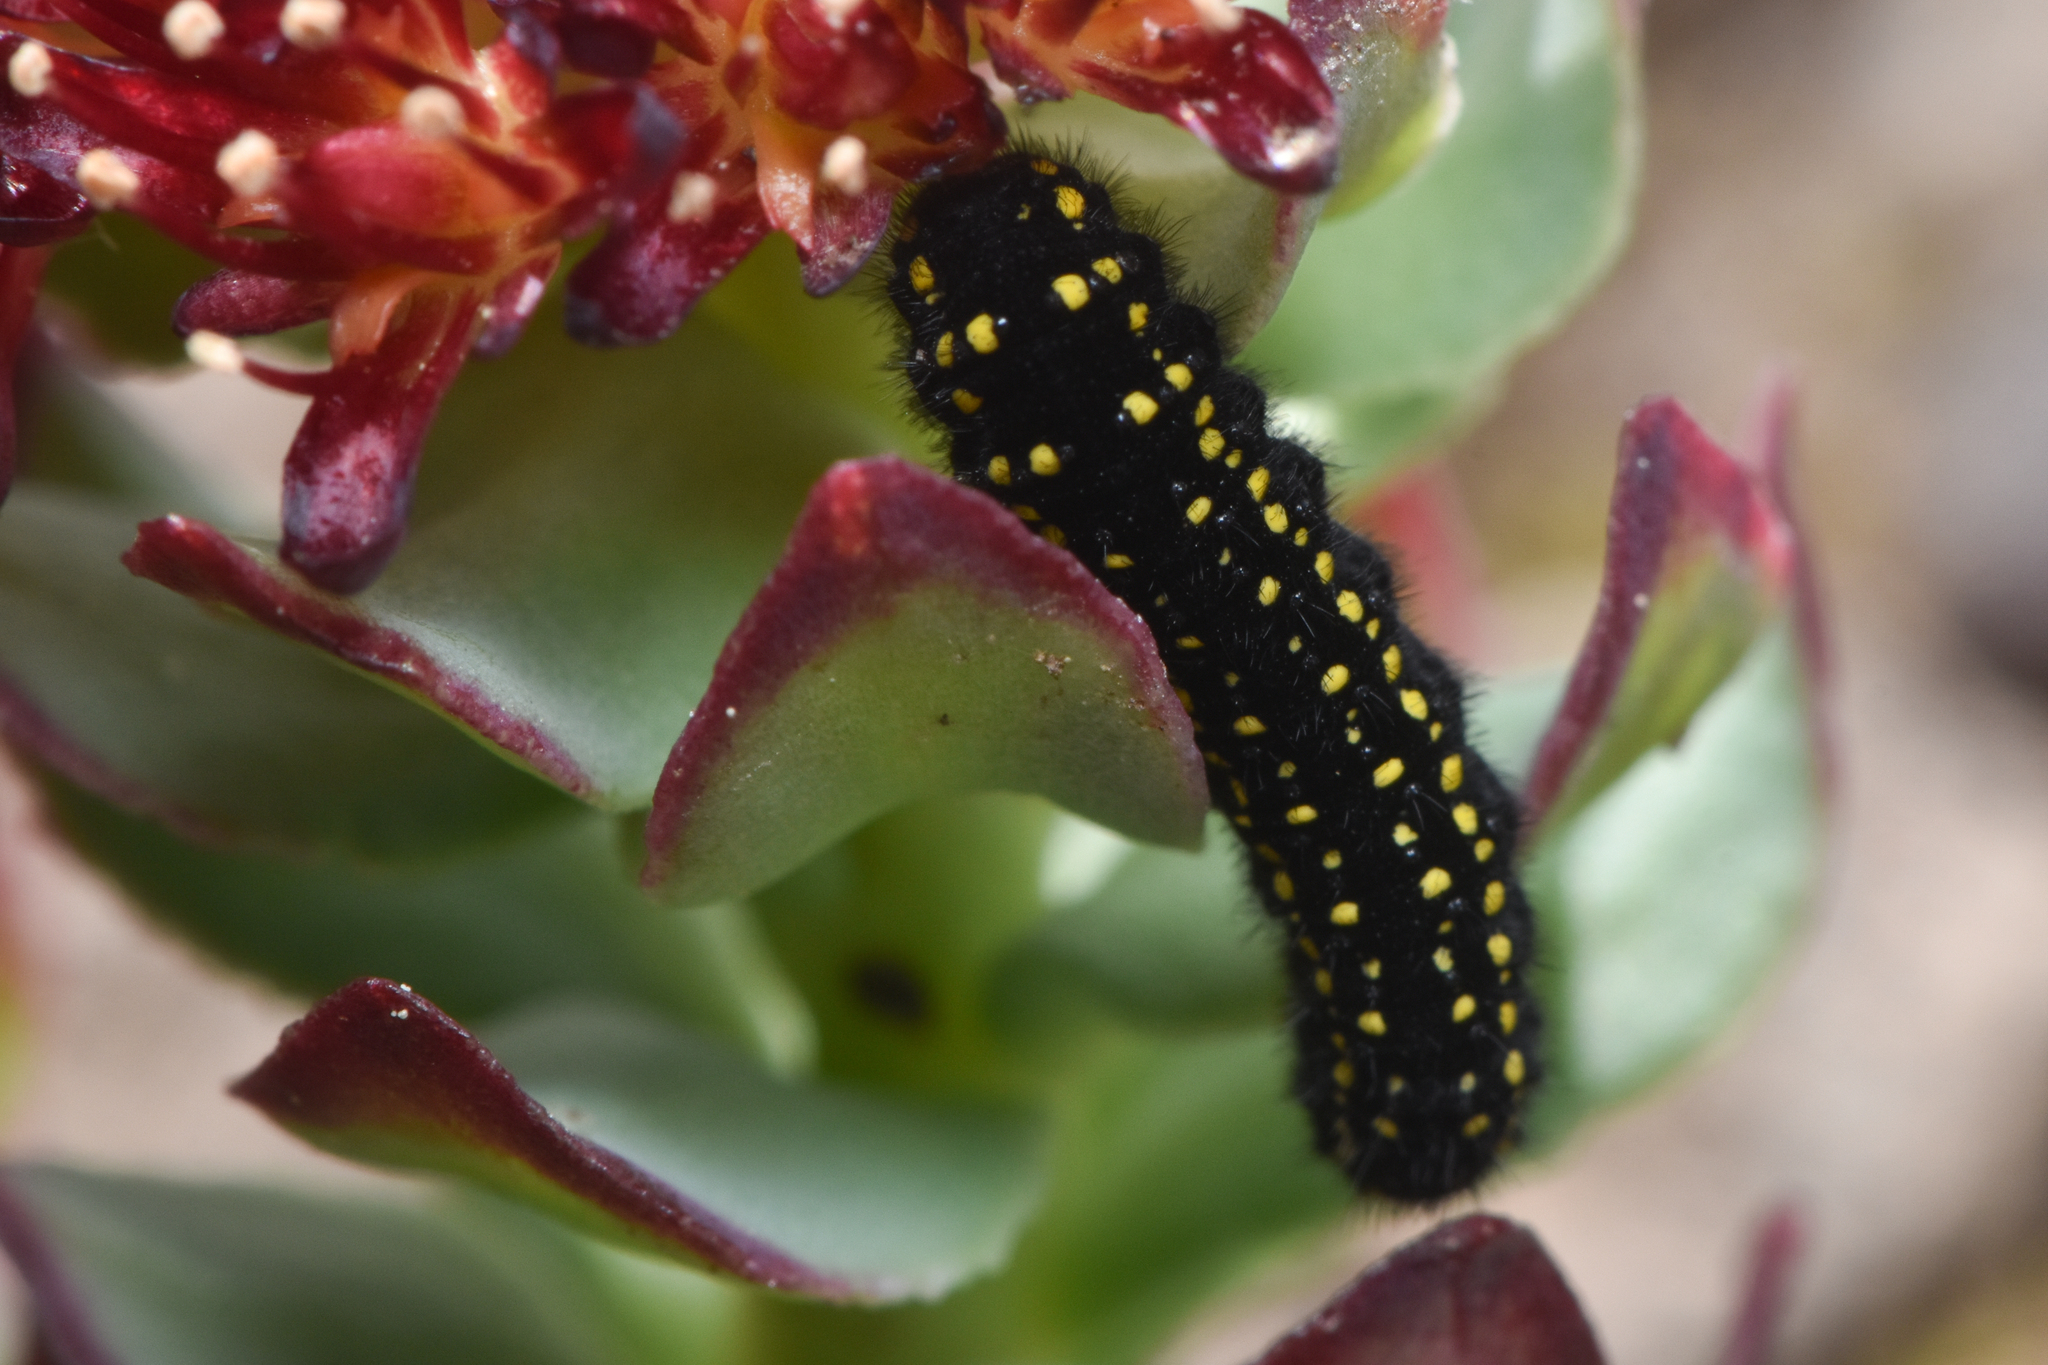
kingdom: Animalia
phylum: Arthropoda
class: Insecta
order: Lepidoptera
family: Papilionidae
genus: Parnassius
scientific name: Parnassius smintheus
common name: Mountain parnassian
